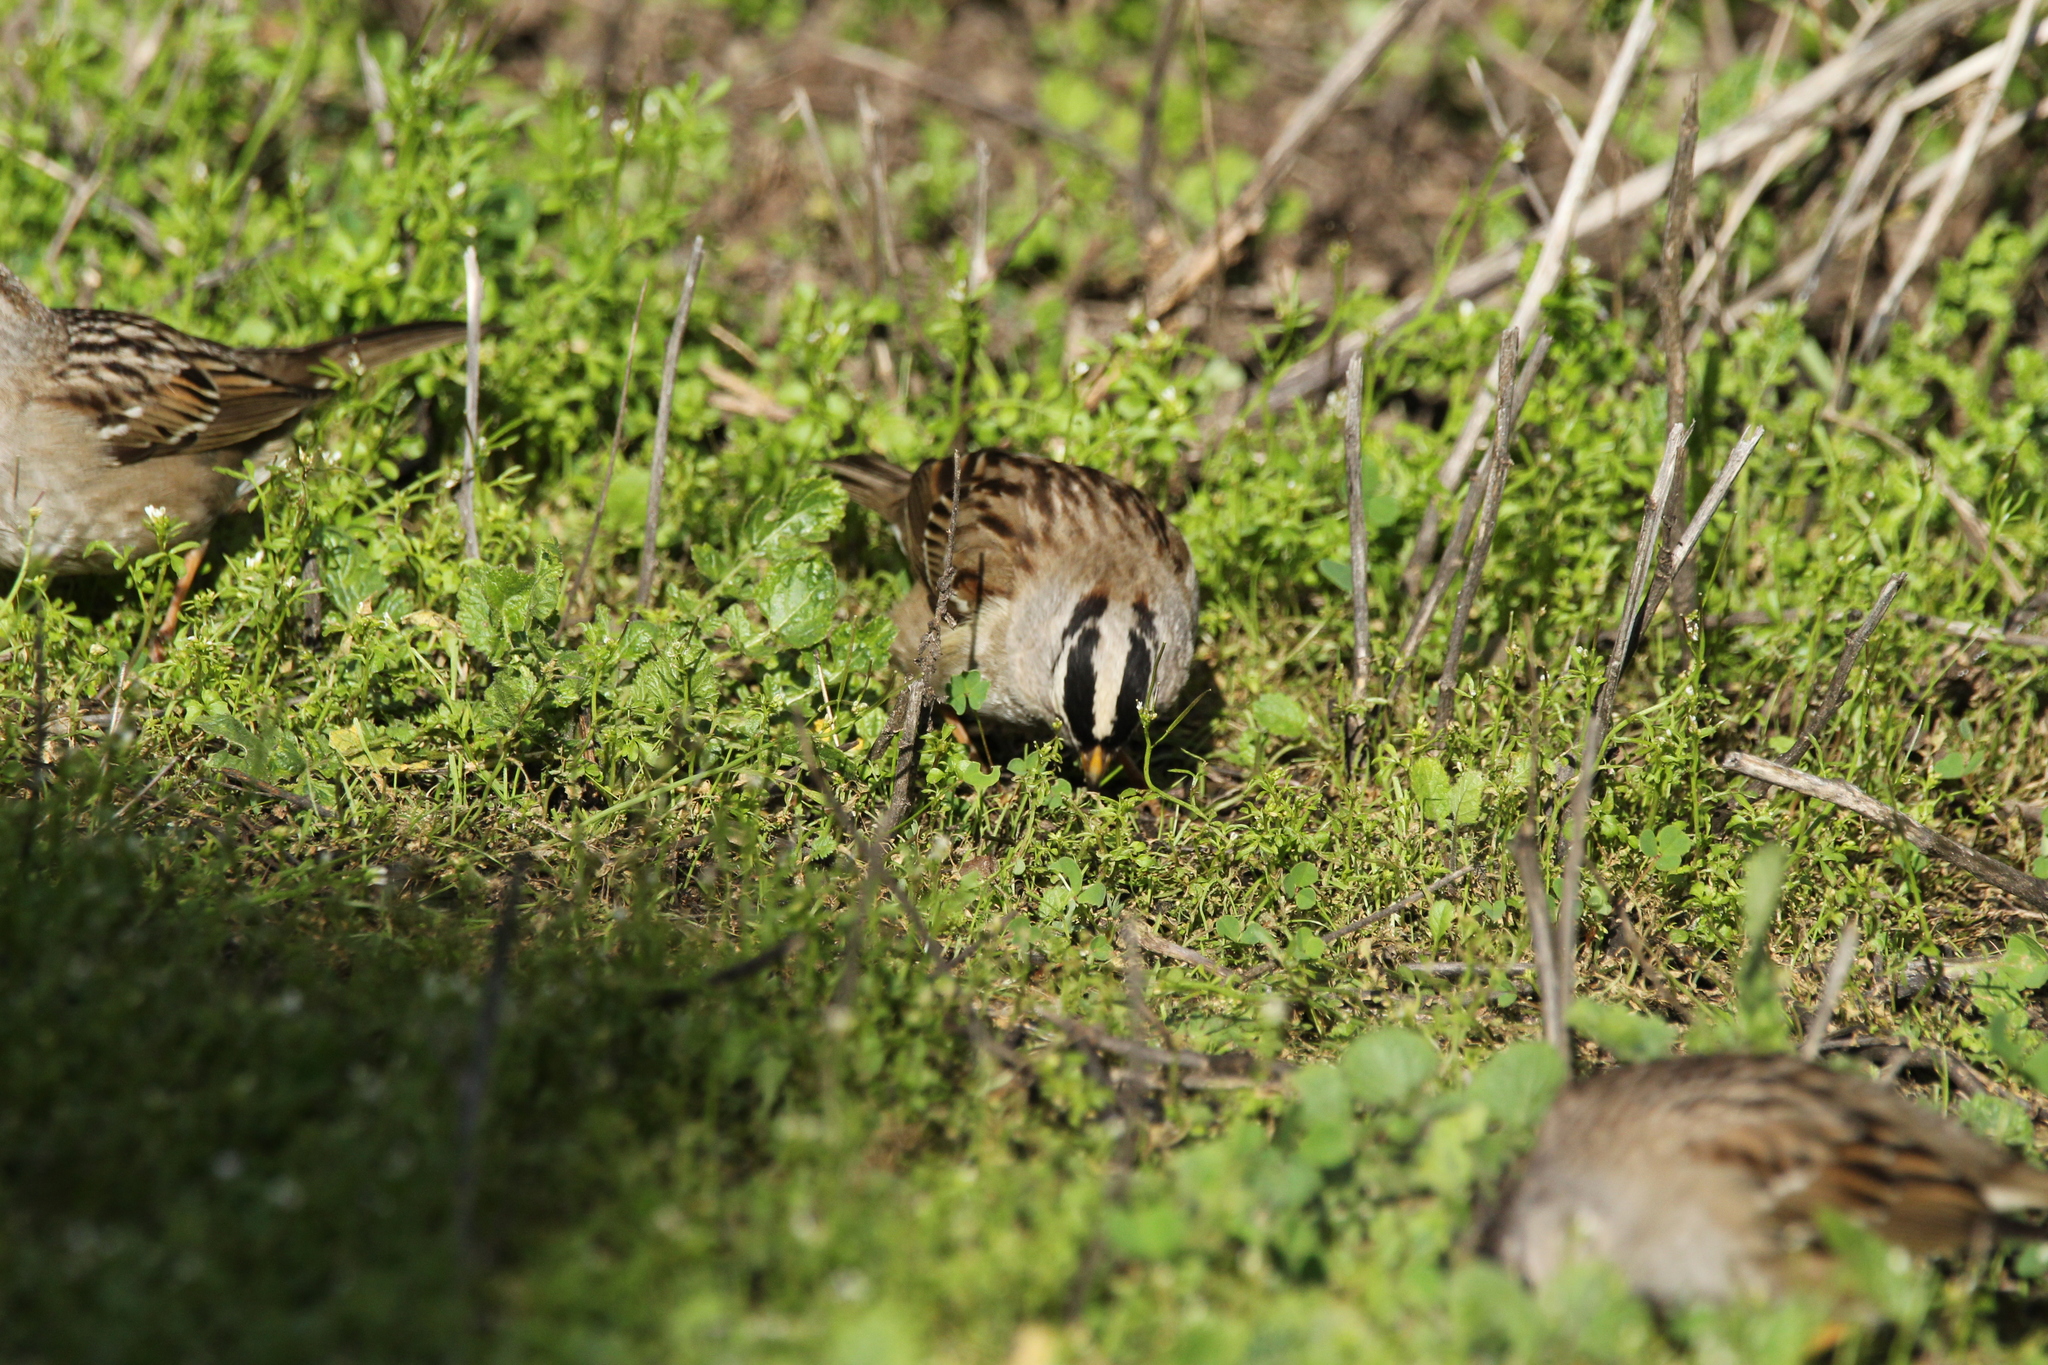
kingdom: Animalia
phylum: Chordata
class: Aves
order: Passeriformes
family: Passerellidae
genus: Zonotrichia
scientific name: Zonotrichia leucophrys
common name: White-crowned sparrow
